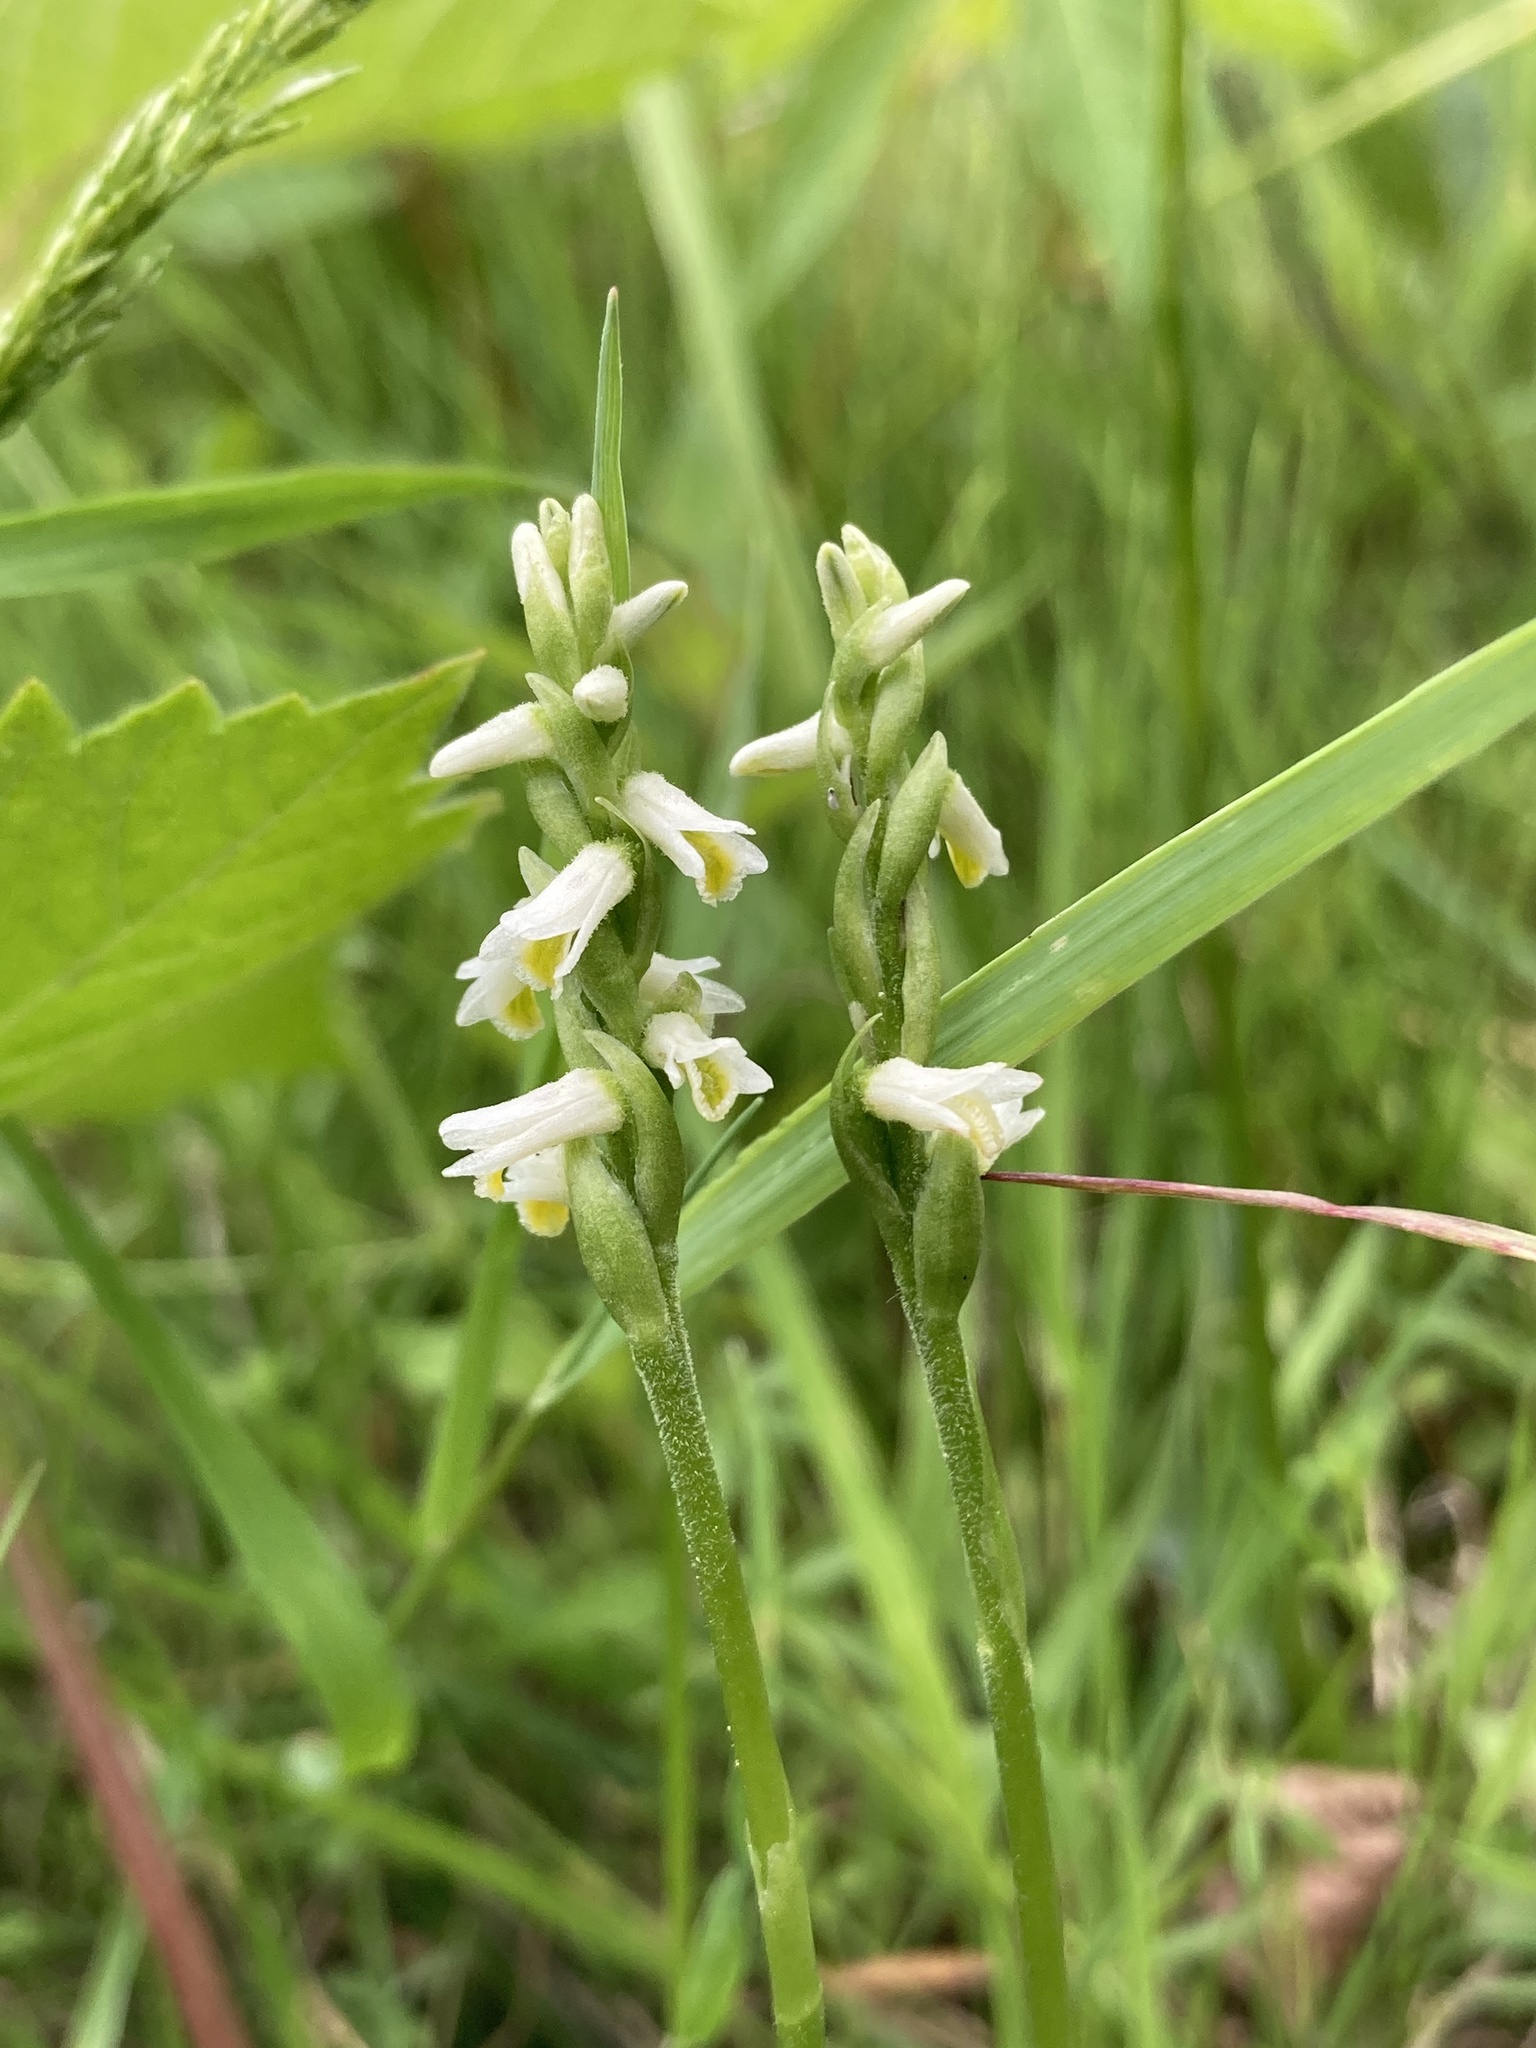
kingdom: Plantae
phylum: Tracheophyta
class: Liliopsida
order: Asparagales
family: Orchidaceae
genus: Spiranthes
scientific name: Spiranthes lucida
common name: Broad-leaved ladies'-tresses
